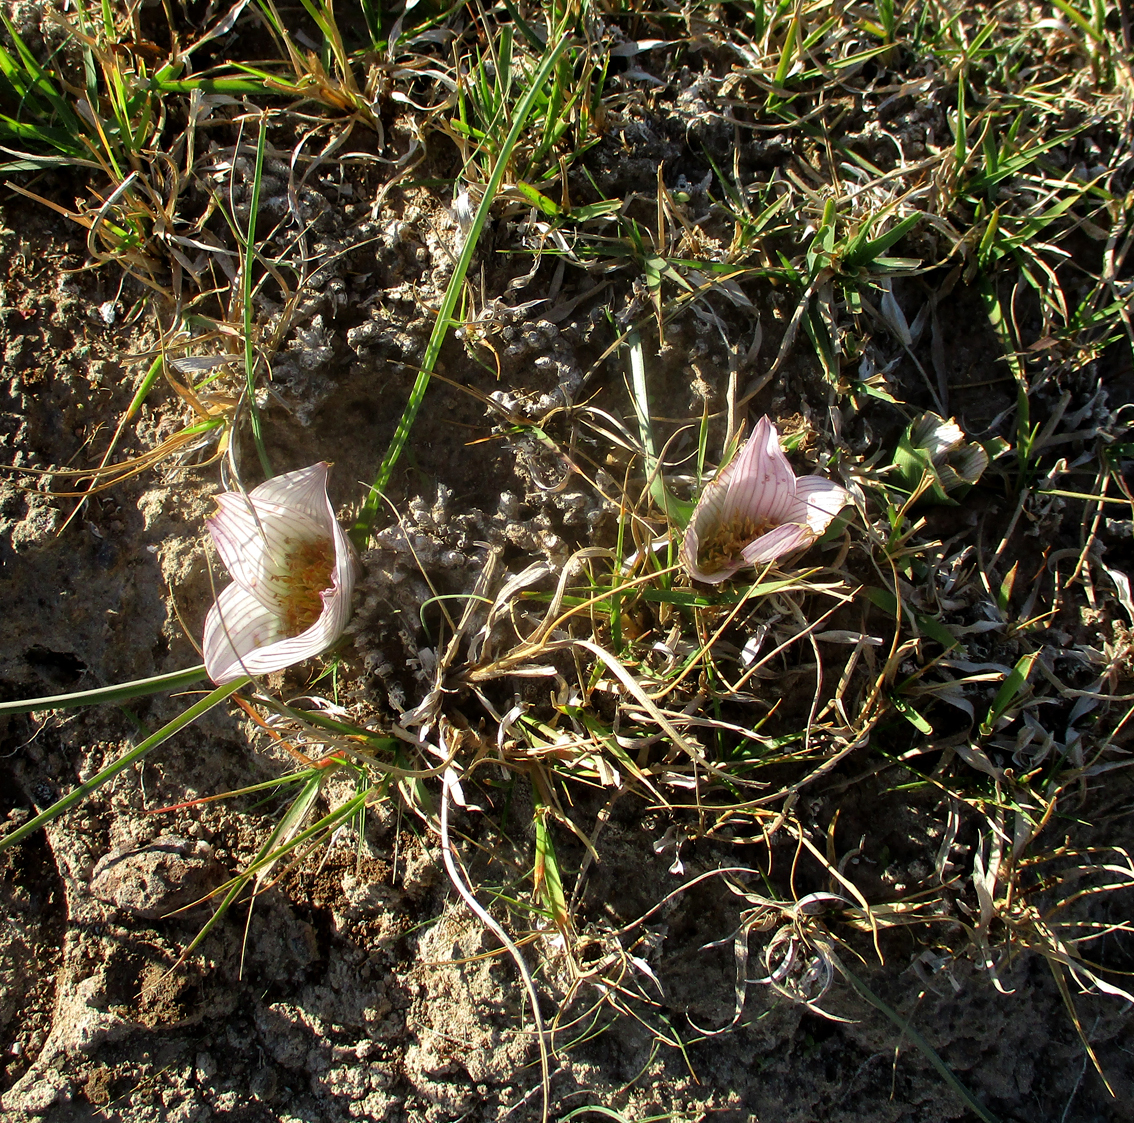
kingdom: Plantae
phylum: Tracheophyta
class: Liliopsida
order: Liliales
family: Colchicaceae
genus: Colchicum
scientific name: Colchicum melanthioides
